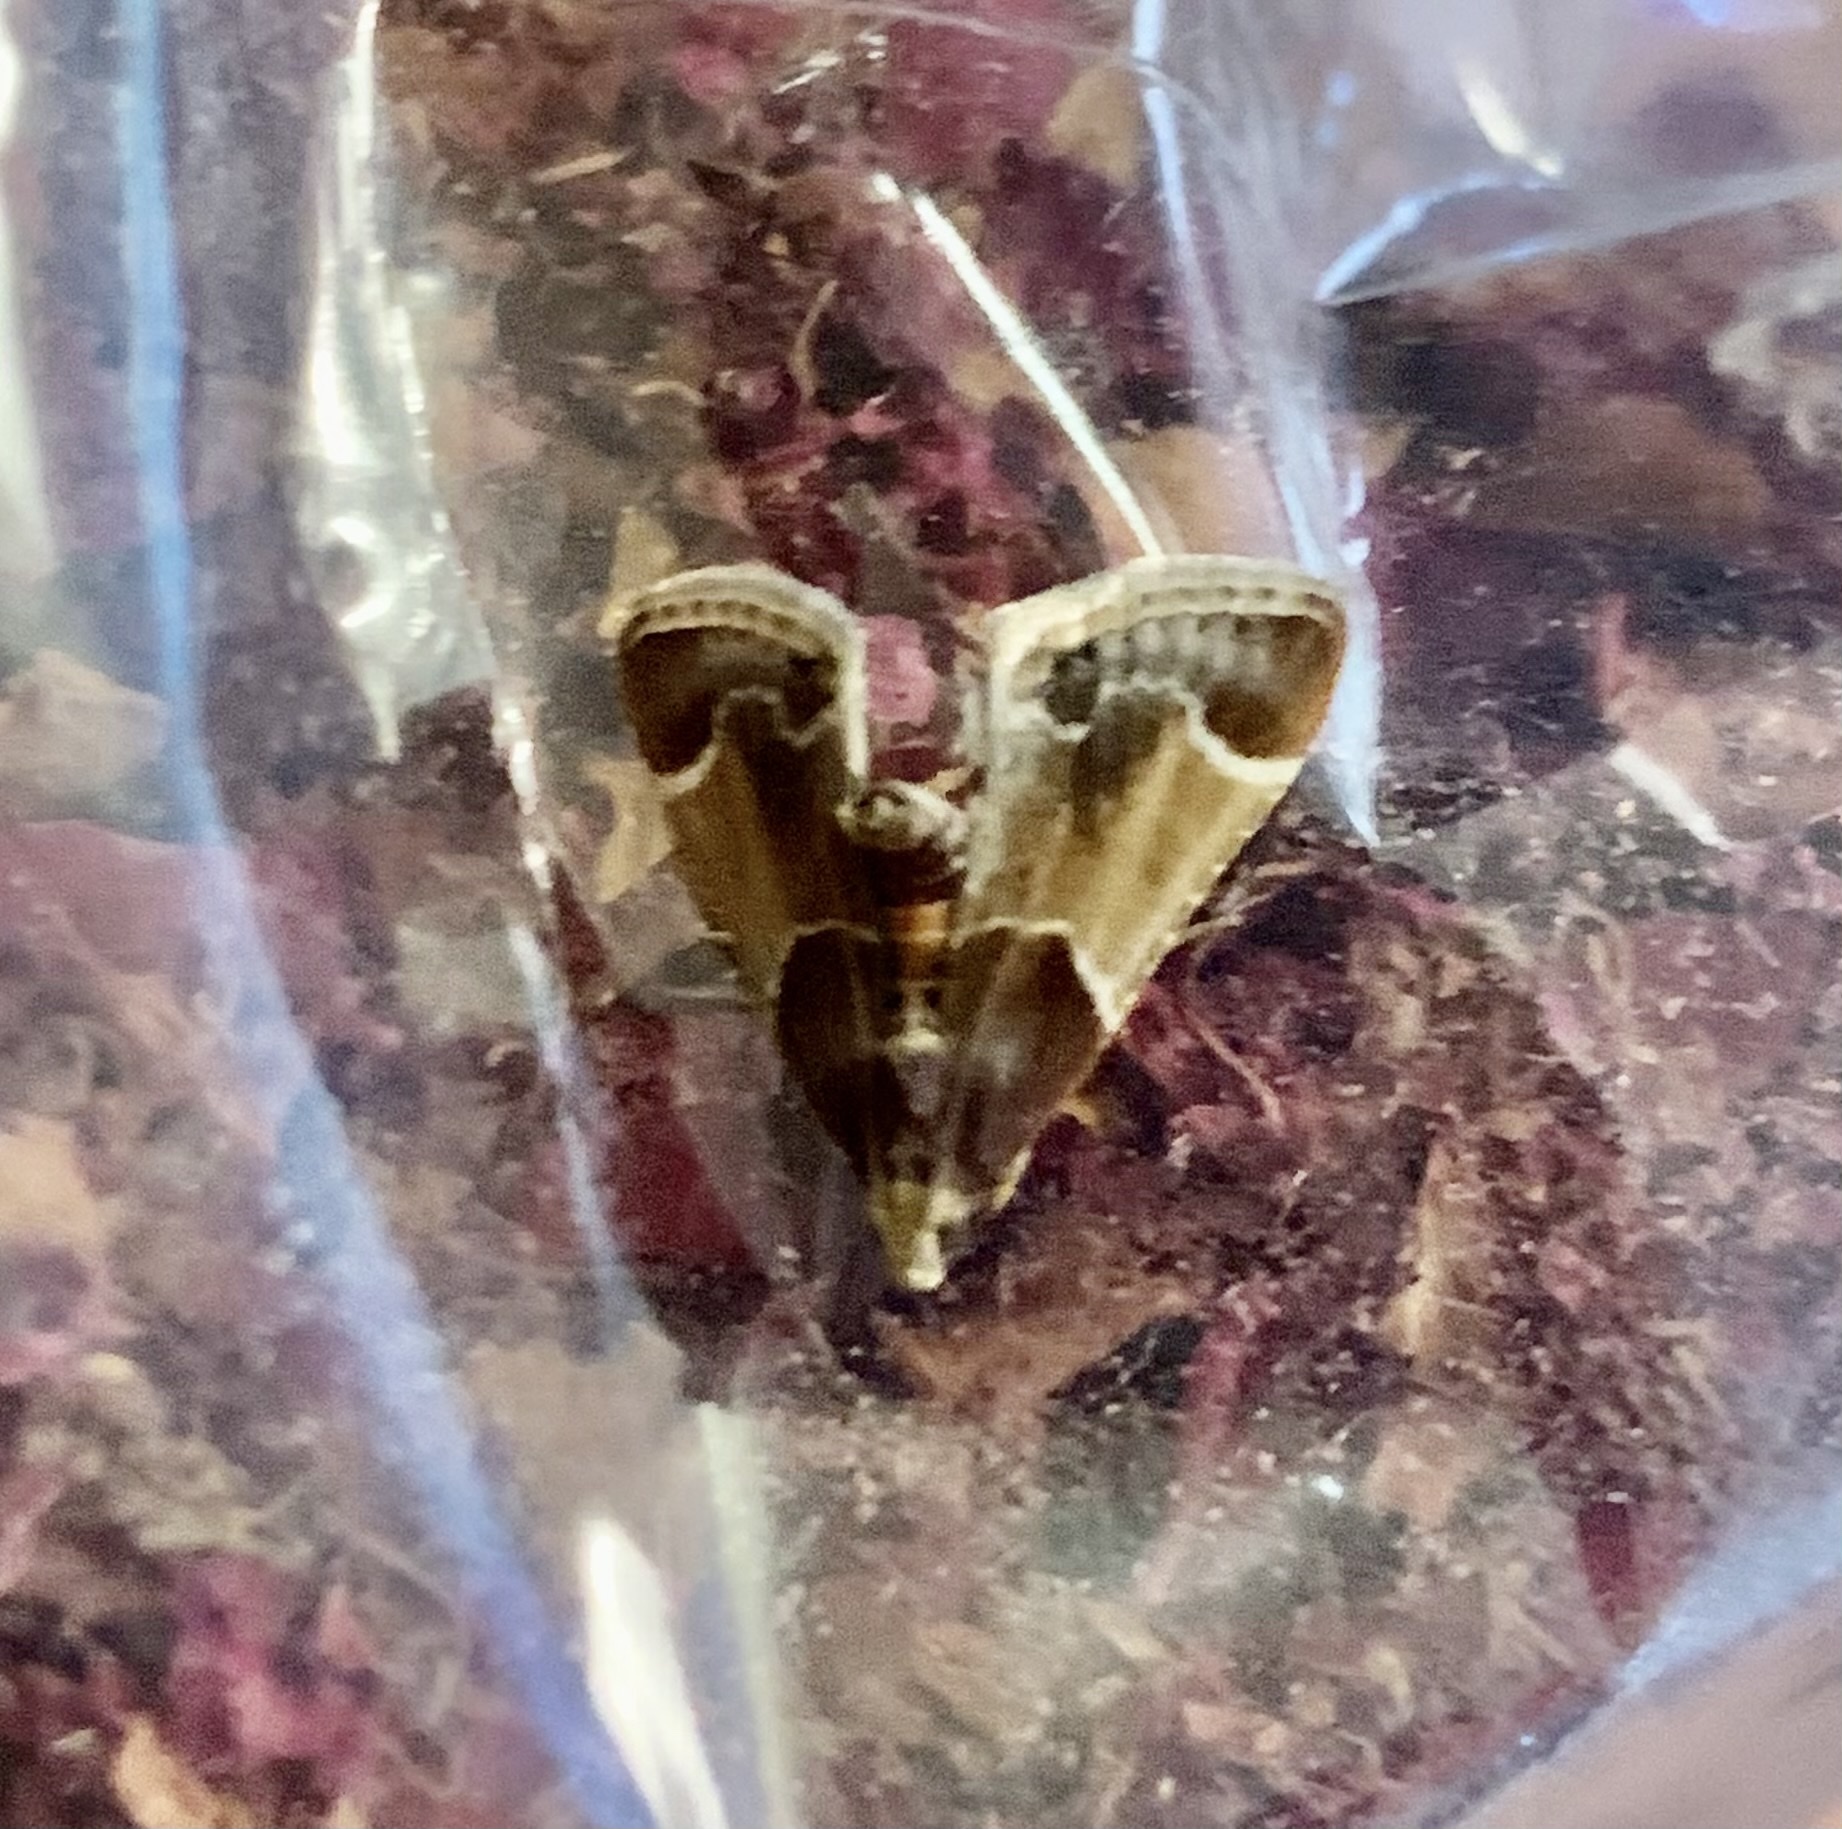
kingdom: Animalia
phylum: Arthropoda
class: Insecta
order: Lepidoptera
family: Pyralidae
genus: Pyralis
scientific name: Pyralis farinalis
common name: Meal moth
